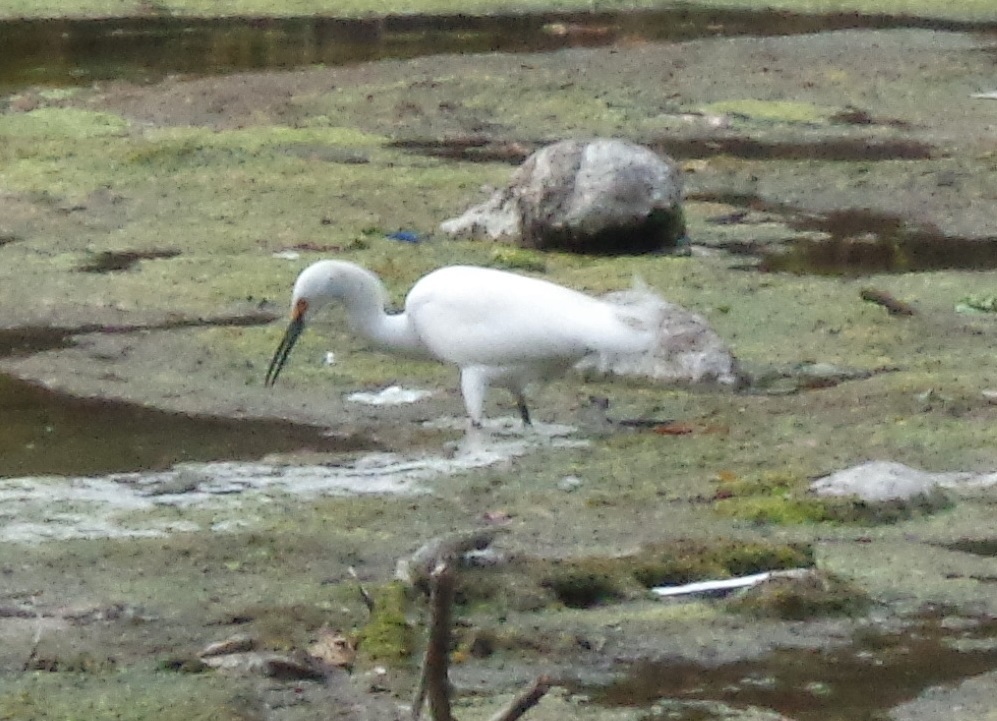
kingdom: Animalia
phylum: Chordata
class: Aves
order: Pelecaniformes
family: Ardeidae
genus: Egretta
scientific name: Egretta thula
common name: Snowy egret
